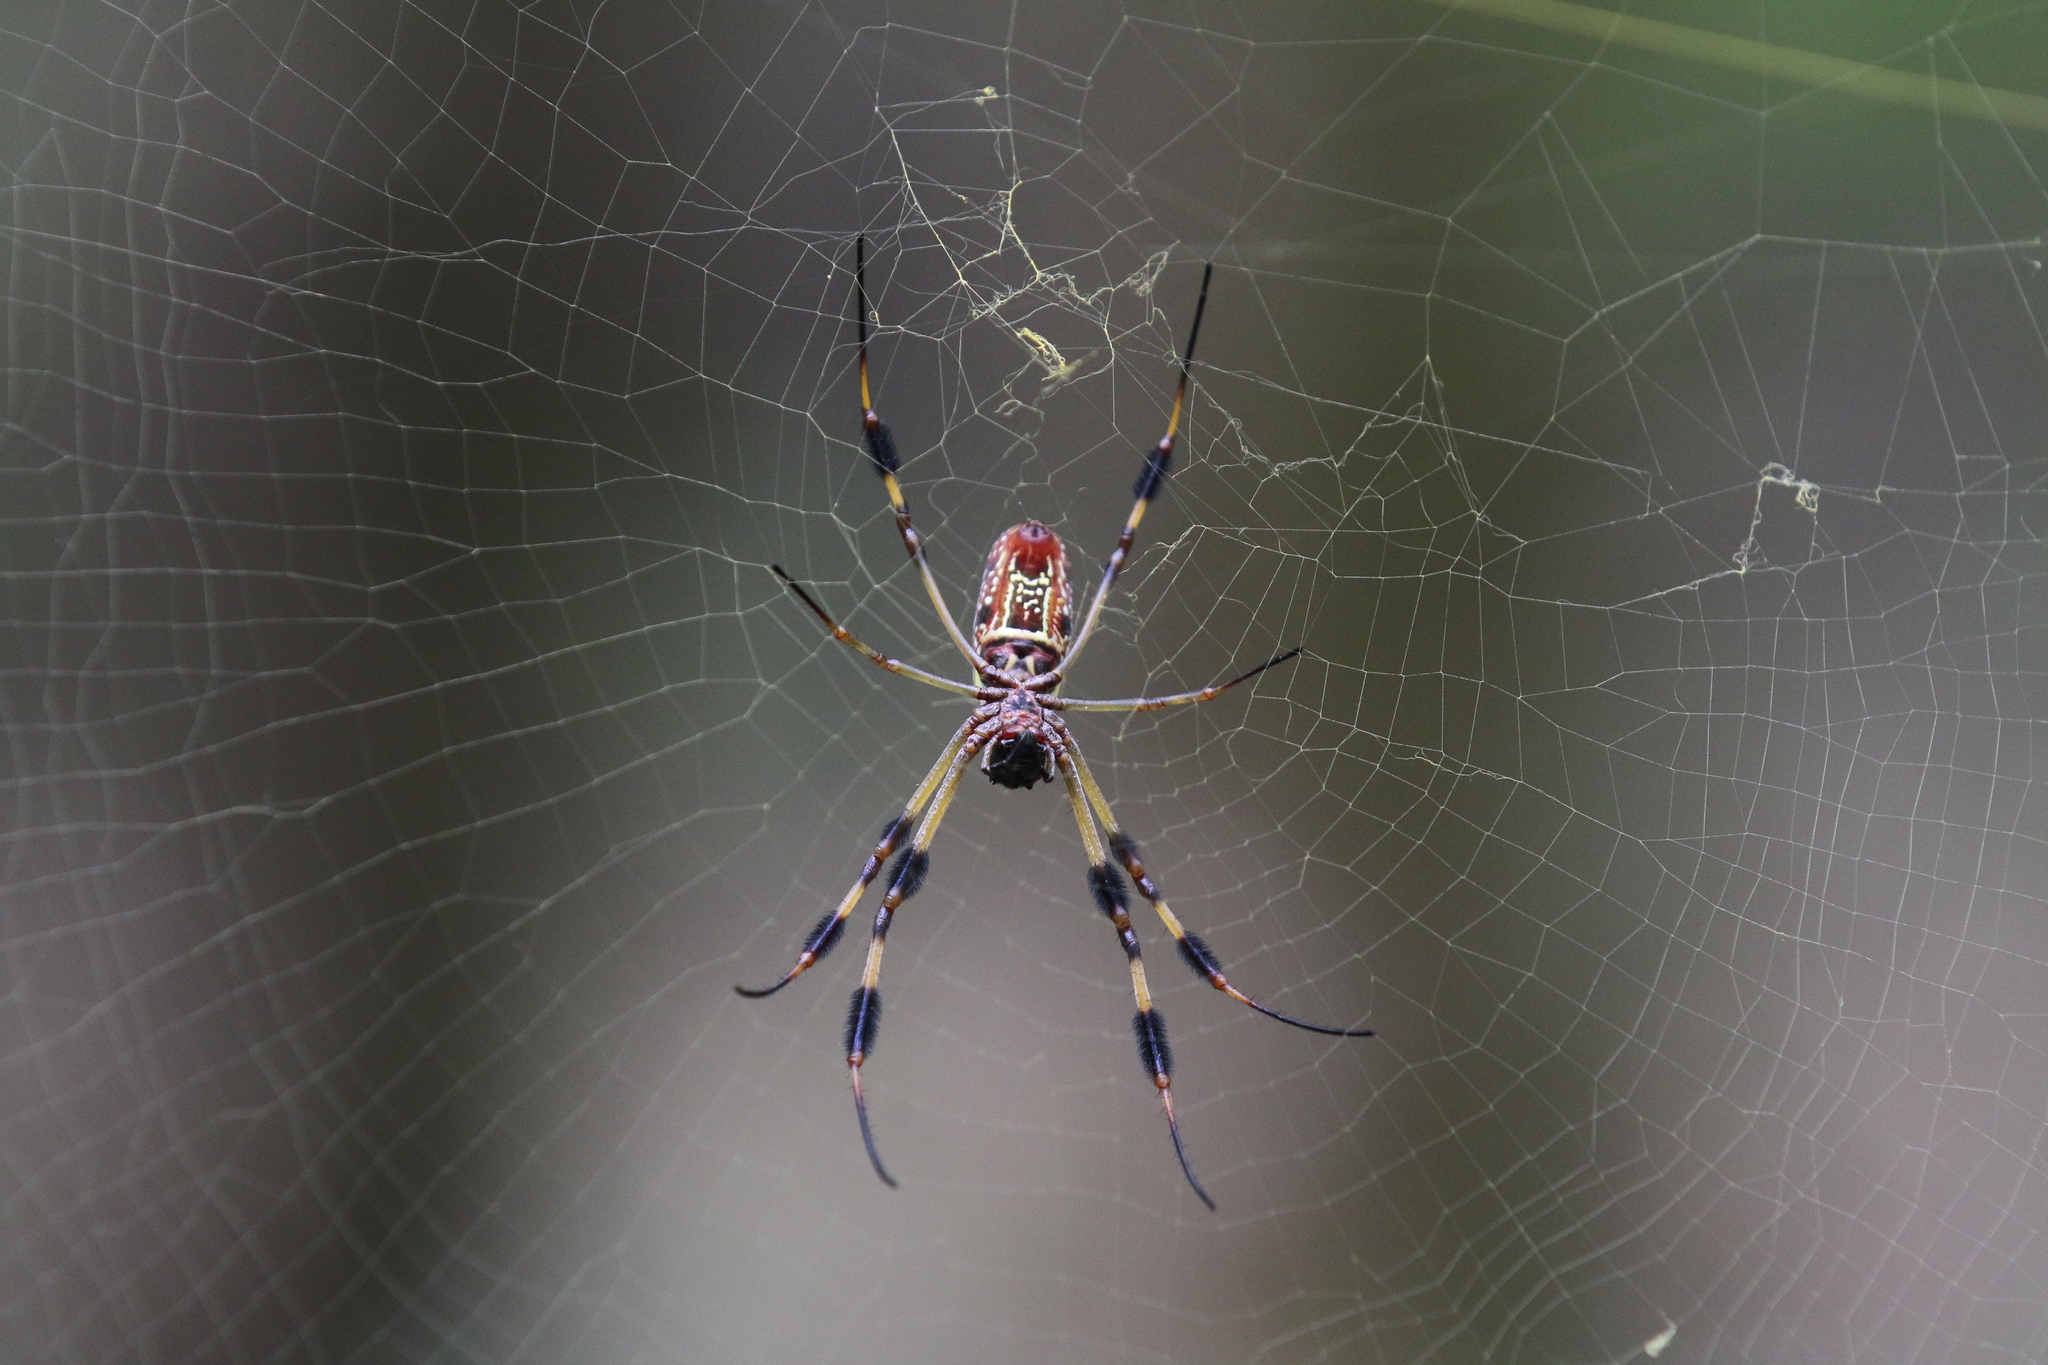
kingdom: Animalia
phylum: Arthropoda
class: Arachnida
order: Araneae
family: Araneidae
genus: Trichonephila
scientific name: Trichonephila clavipes
